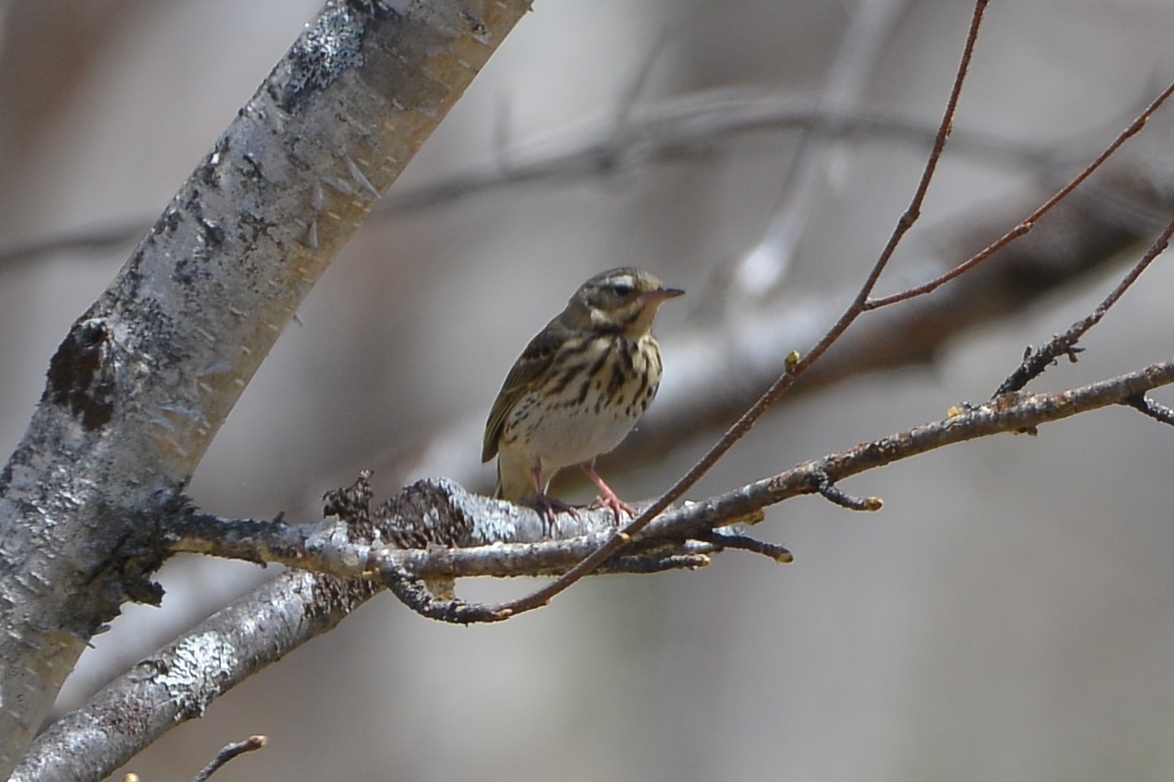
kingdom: Animalia
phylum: Chordata
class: Aves
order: Passeriformes
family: Motacillidae
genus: Anthus
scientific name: Anthus hodgsoni
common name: Olive-backed pipit
